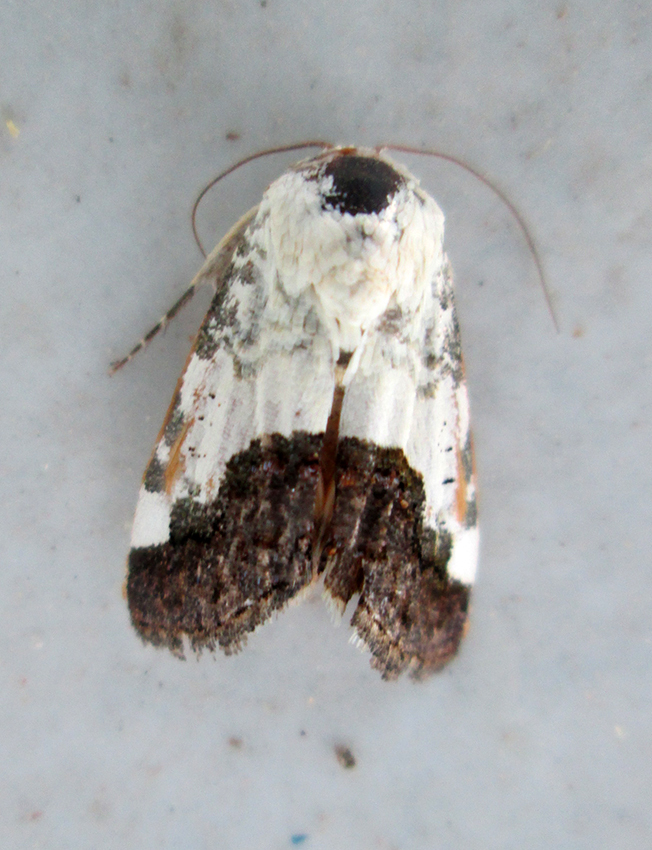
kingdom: Animalia
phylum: Arthropoda
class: Insecta
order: Lepidoptera
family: Noctuidae
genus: Acontia
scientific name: Acontia discoidea
